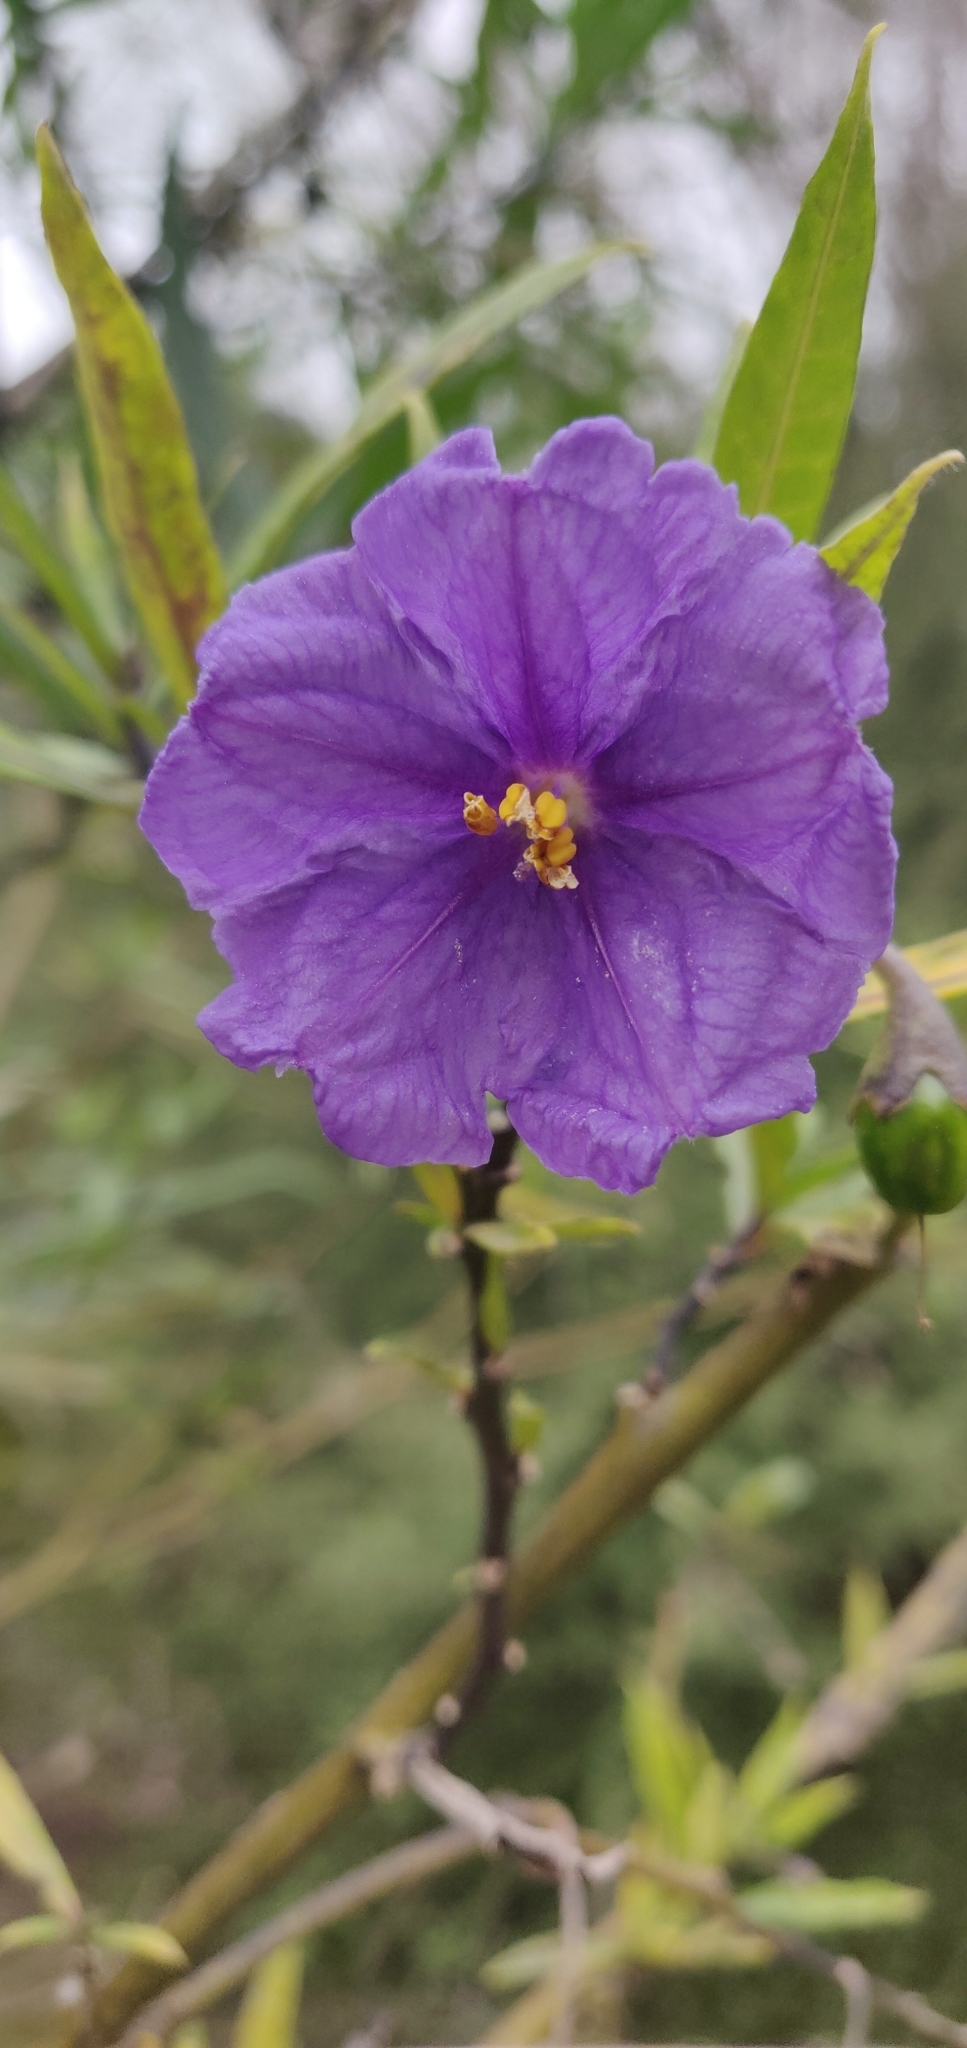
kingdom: Plantae
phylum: Tracheophyta
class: Magnoliopsida
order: Solanales
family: Solanaceae
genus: Solanum
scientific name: Solanum laciniatum
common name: Kangaroo-apple
